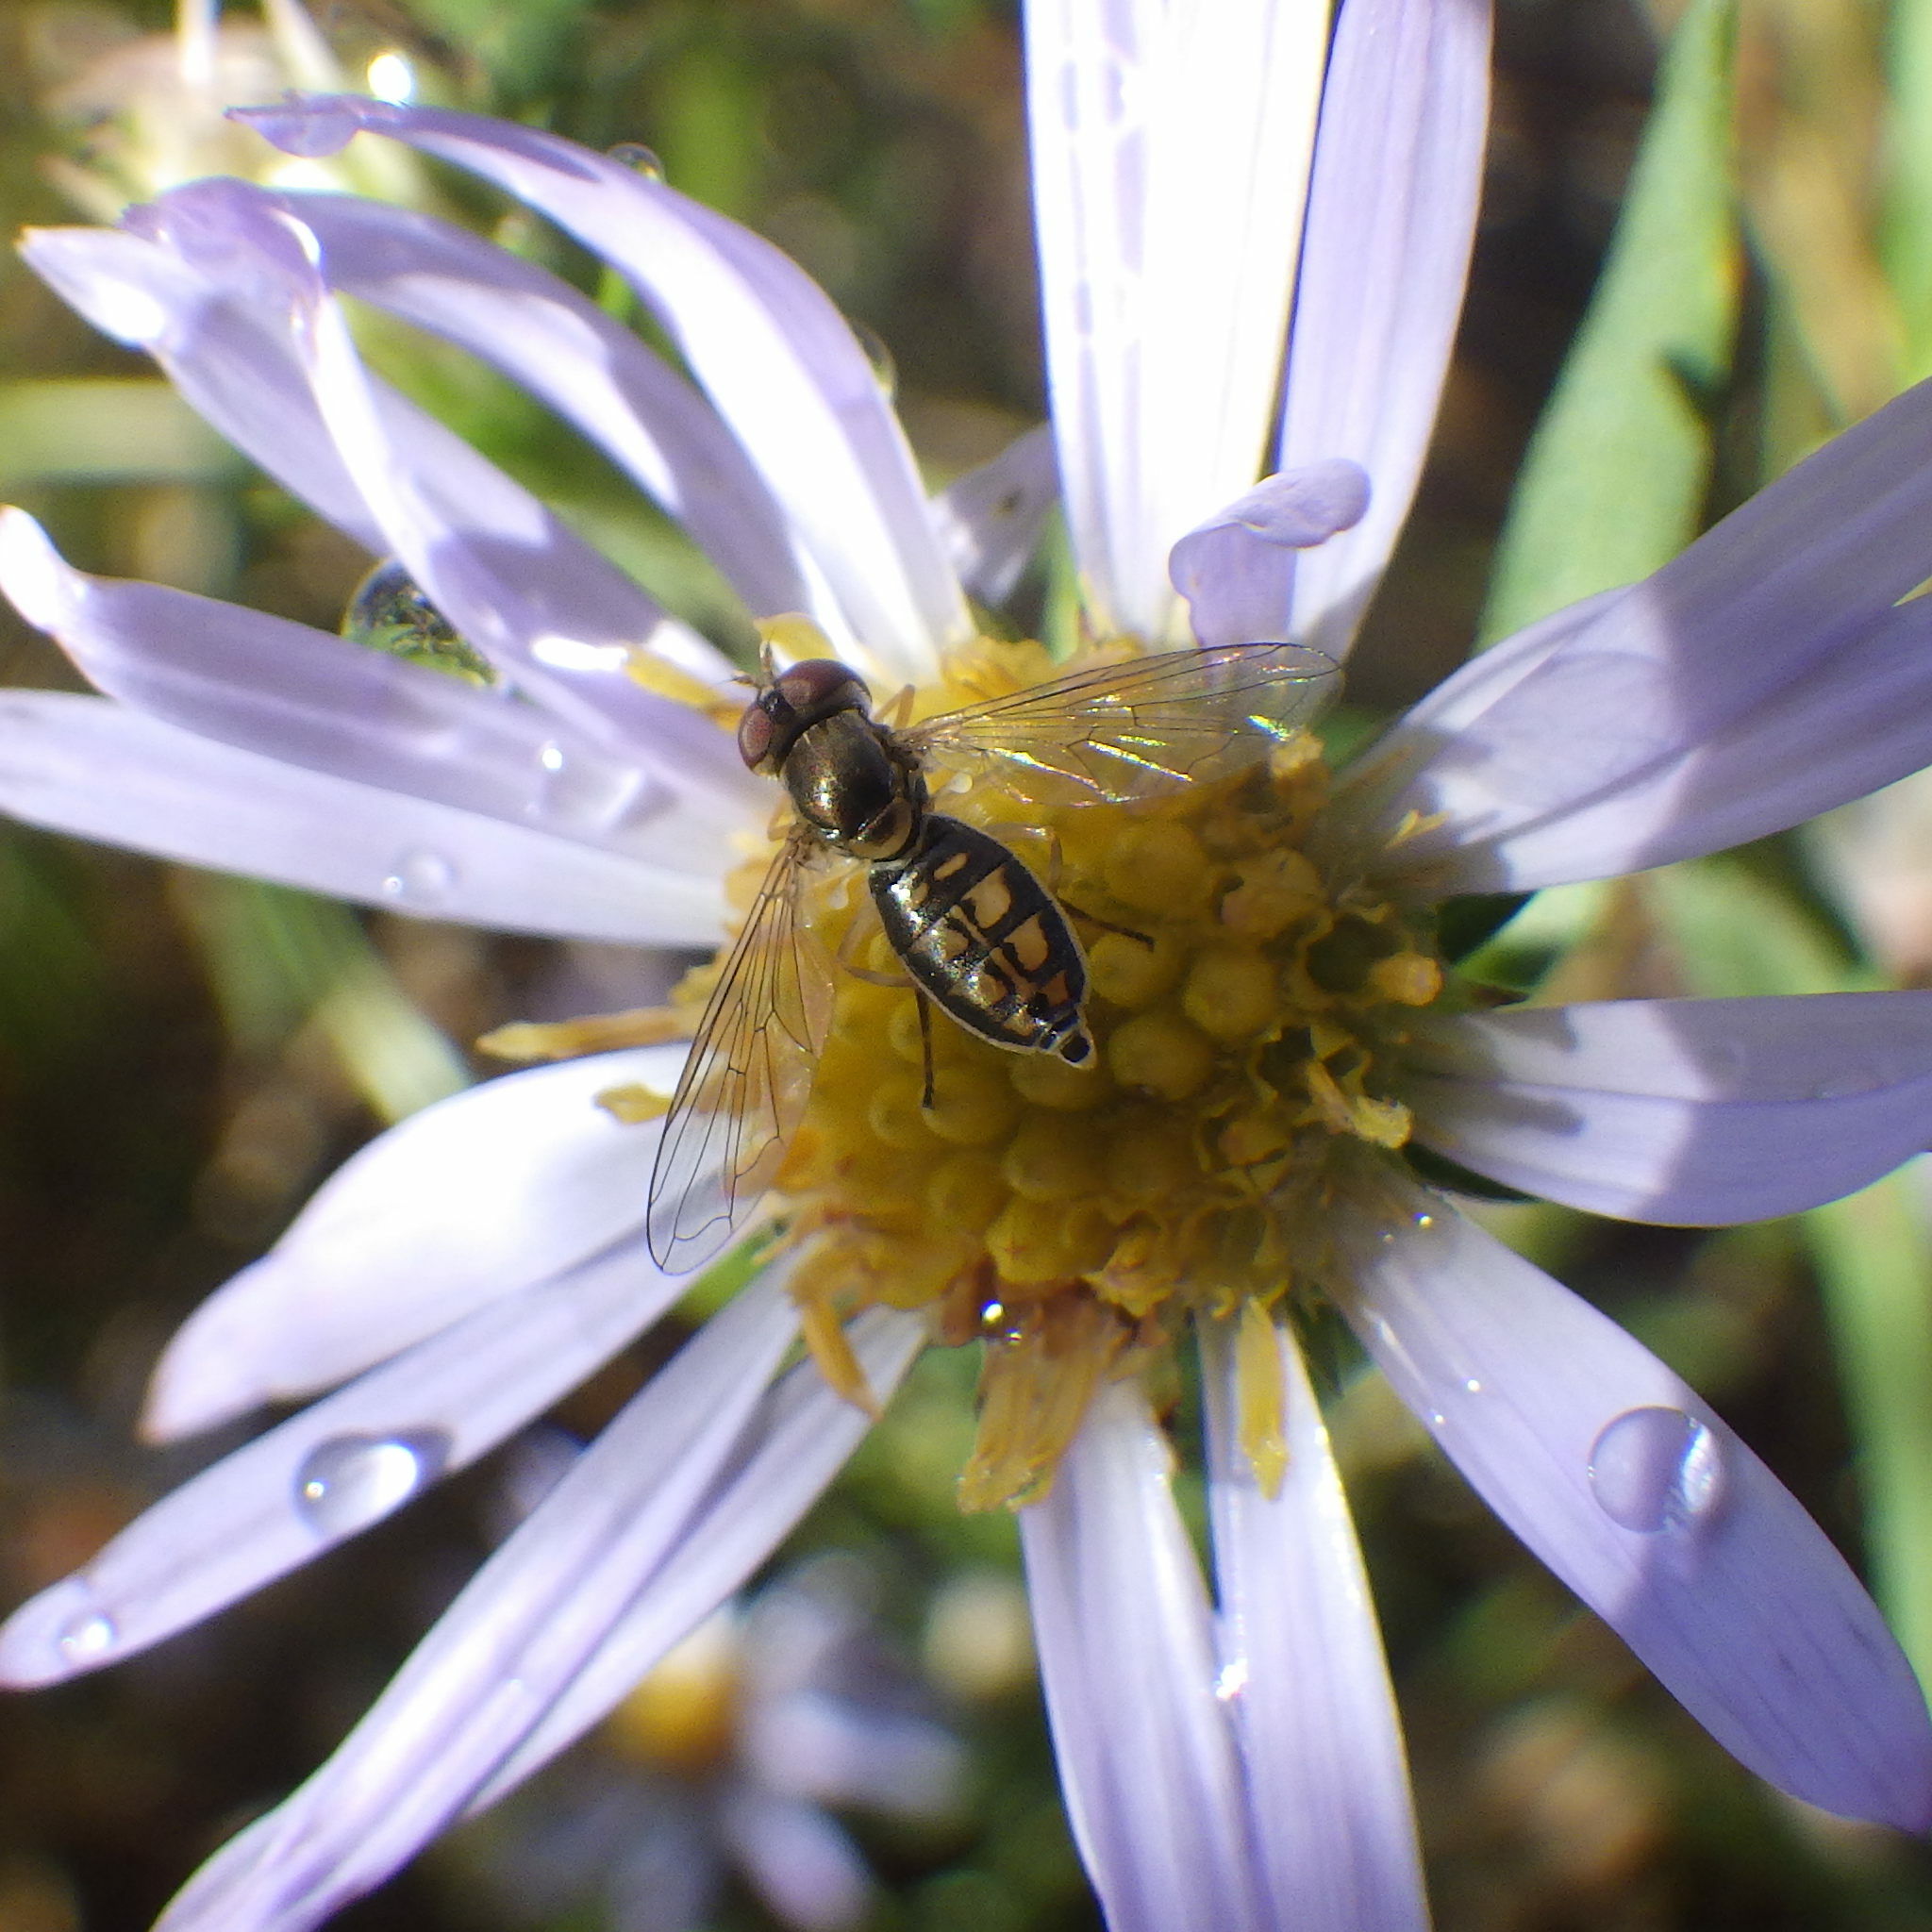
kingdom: Animalia
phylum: Arthropoda
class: Insecta
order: Diptera
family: Syrphidae
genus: Toxomerus
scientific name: Toxomerus marginatus
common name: Syrphid fly
